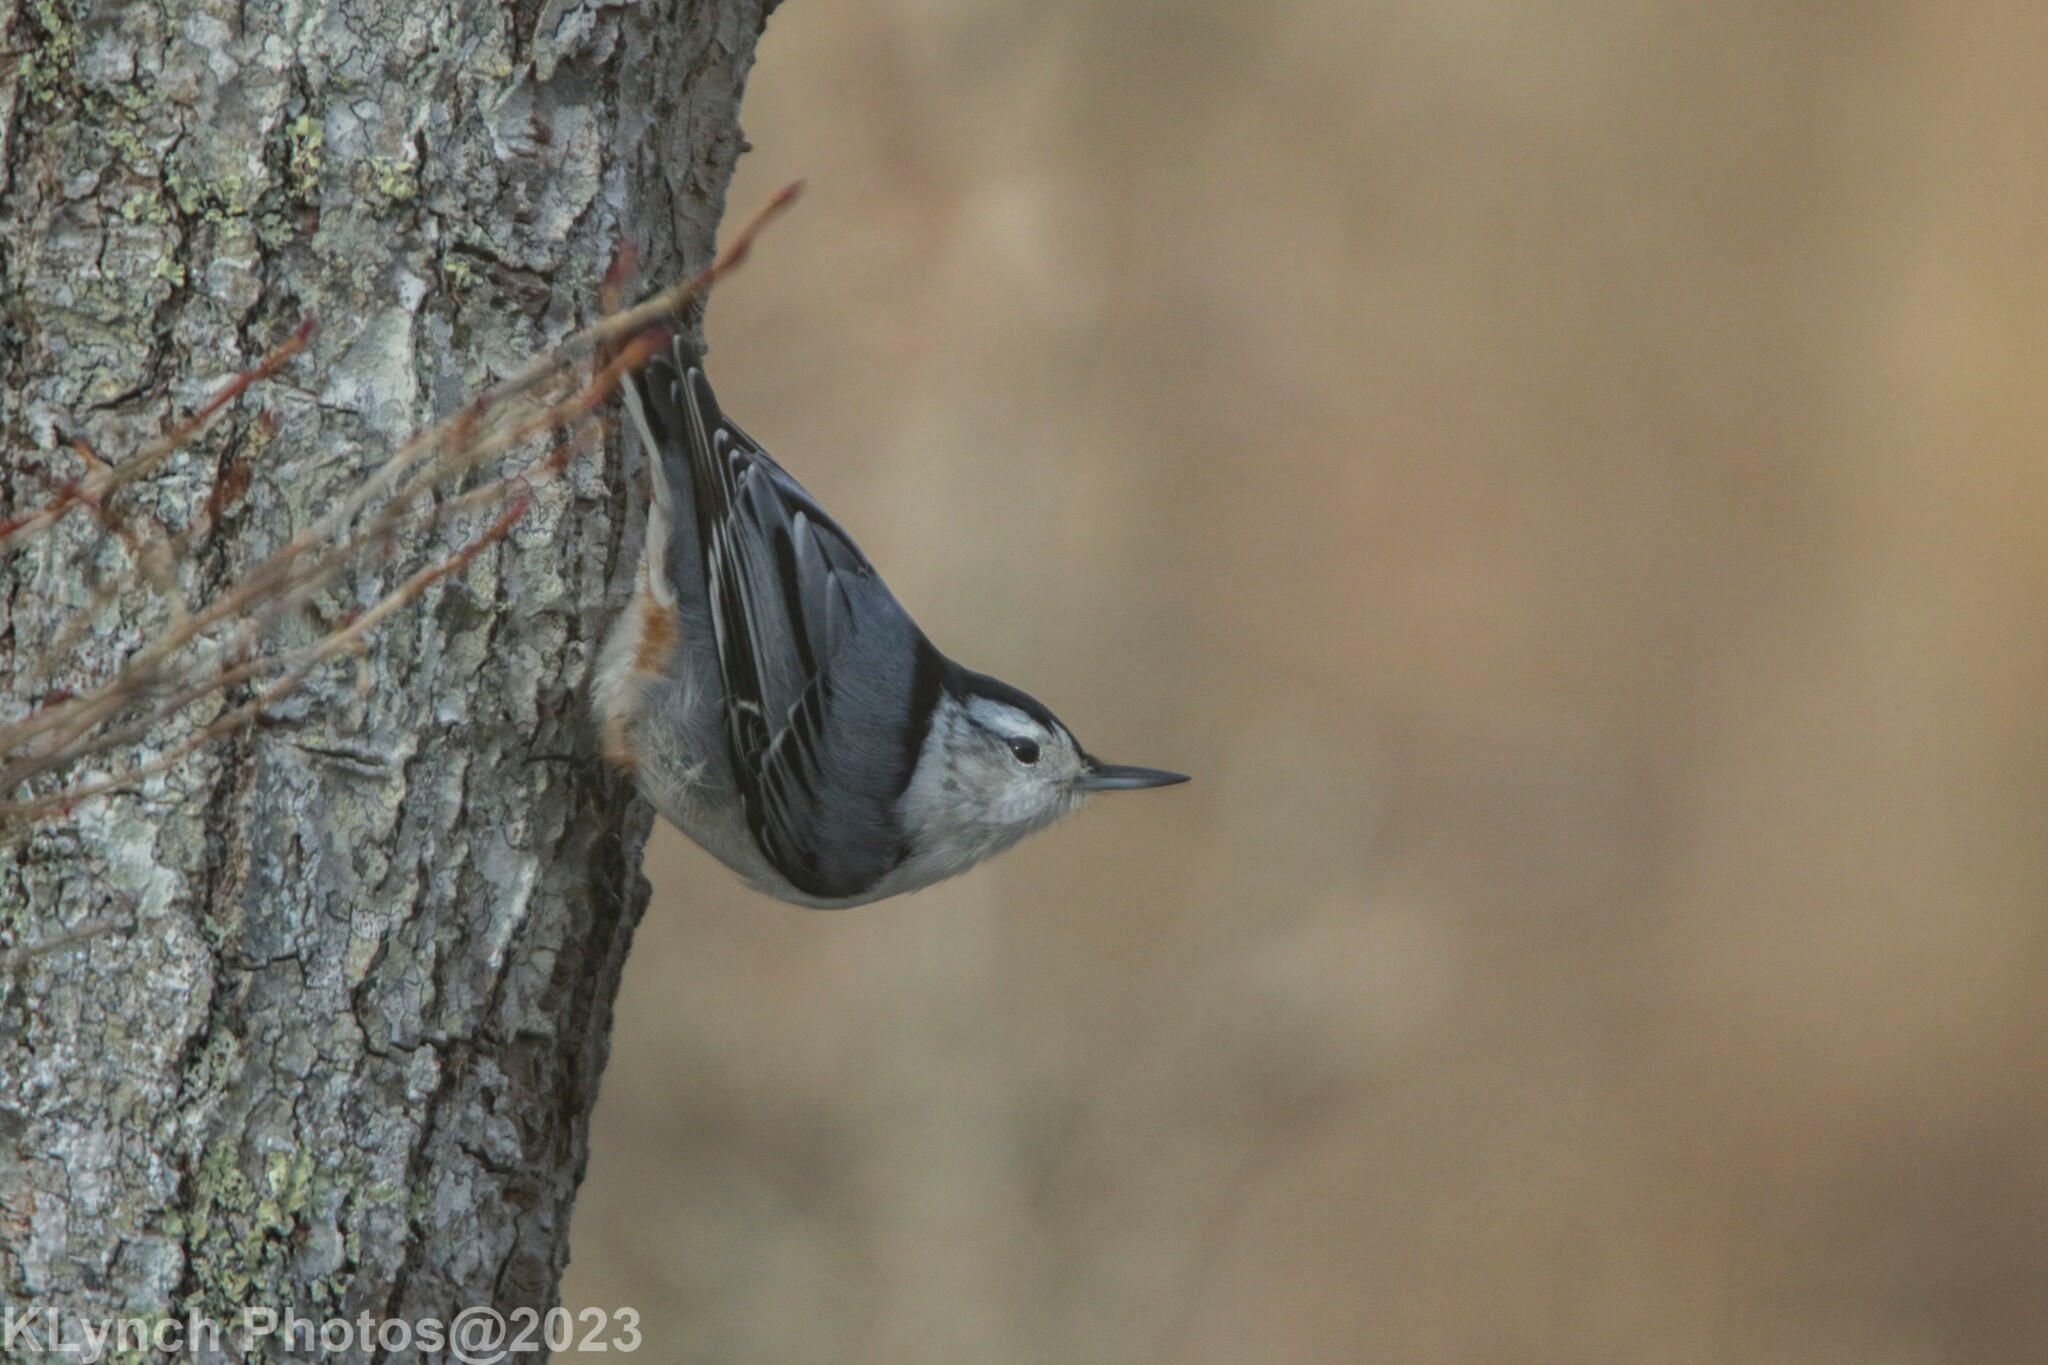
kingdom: Animalia
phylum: Chordata
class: Aves
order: Passeriformes
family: Sittidae
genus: Sitta
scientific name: Sitta carolinensis
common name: White-breasted nuthatch
